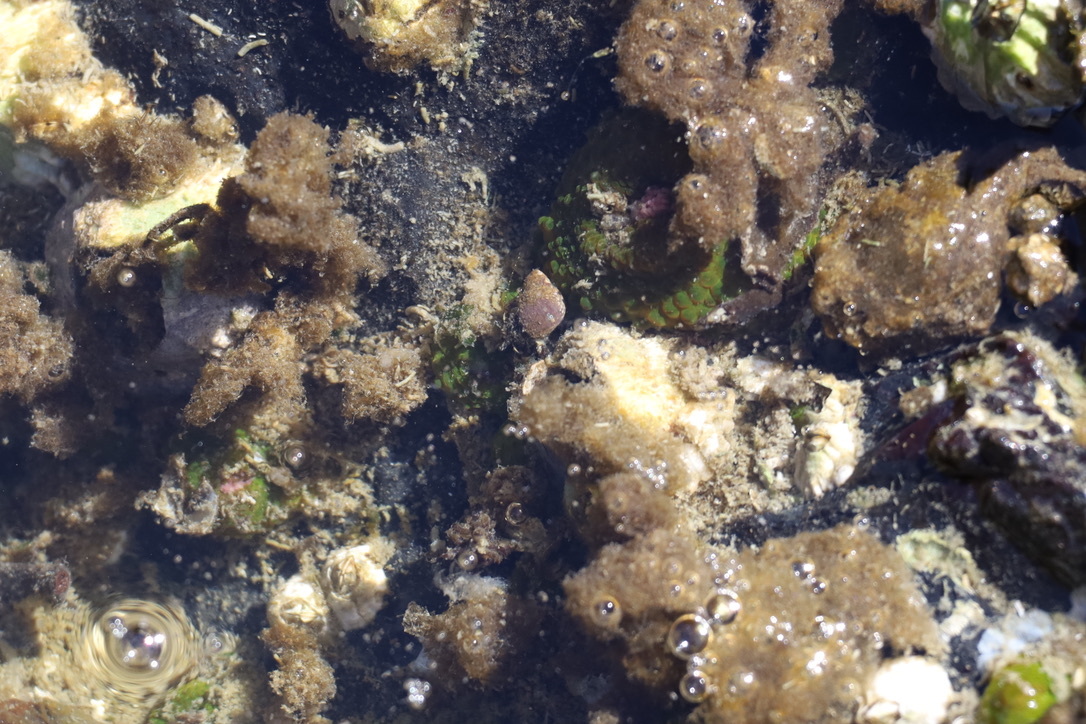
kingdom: Animalia
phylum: Cnidaria
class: Anthozoa
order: Actiniaria
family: Actiniidae
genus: Anthopleura
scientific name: Anthopleura elegantissima
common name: Clonal anemone
